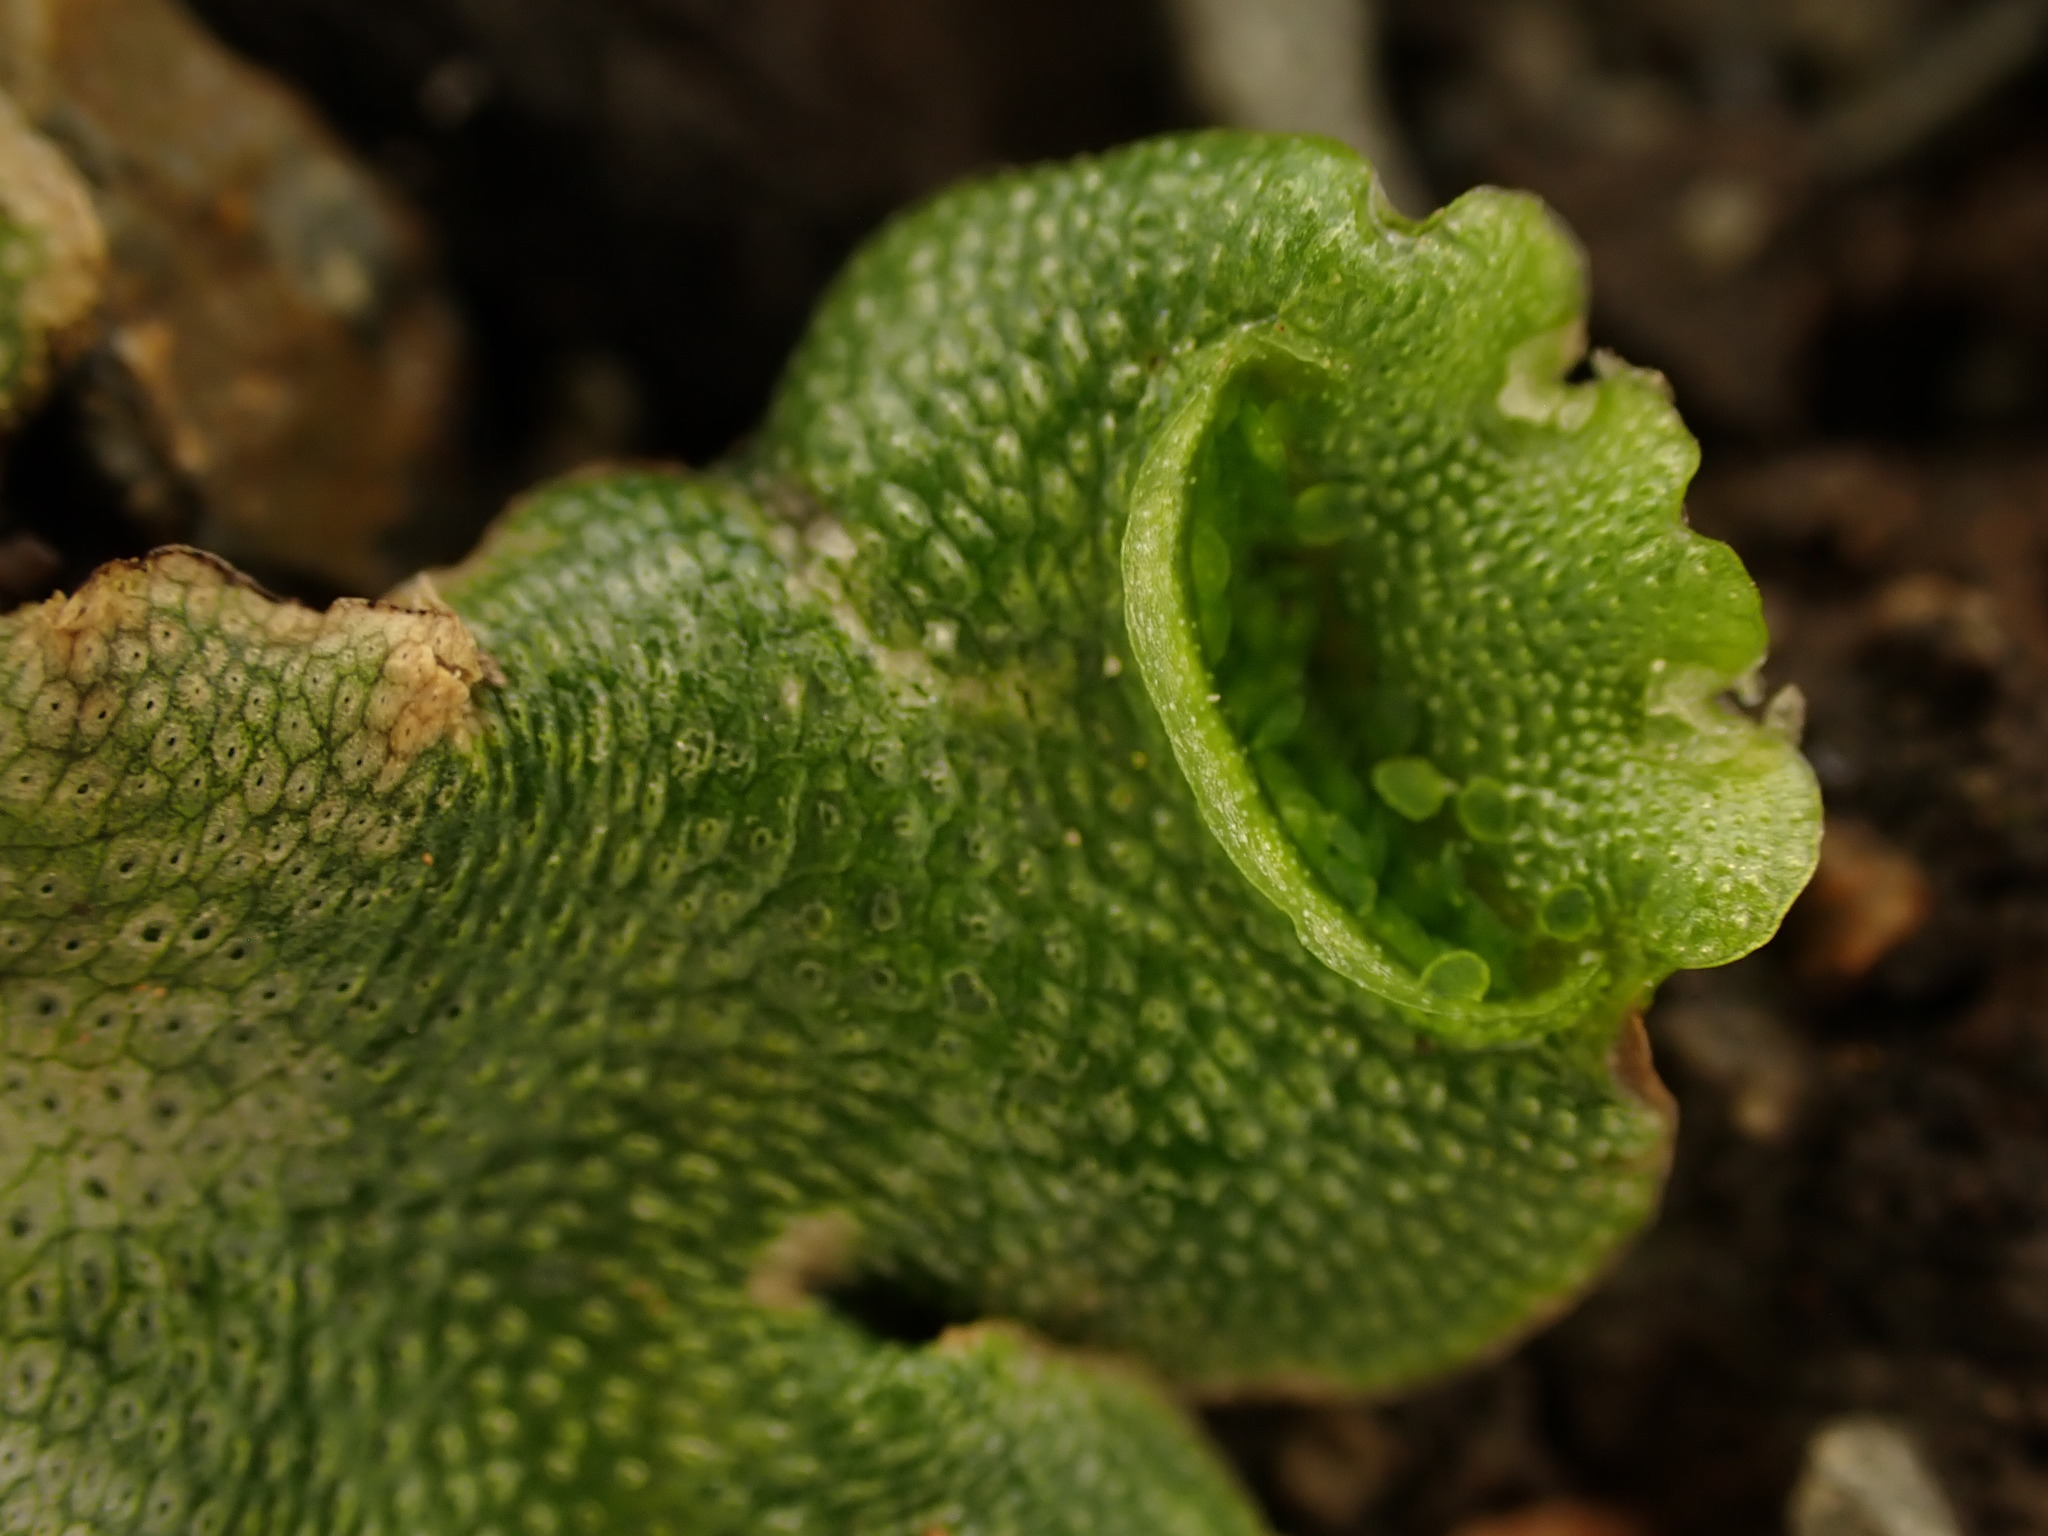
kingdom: Plantae
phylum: Marchantiophyta
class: Marchantiopsida
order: Lunulariales
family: Lunulariaceae
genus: Lunularia
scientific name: Lunularia cruciata
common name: Crescent-cup liverwort
